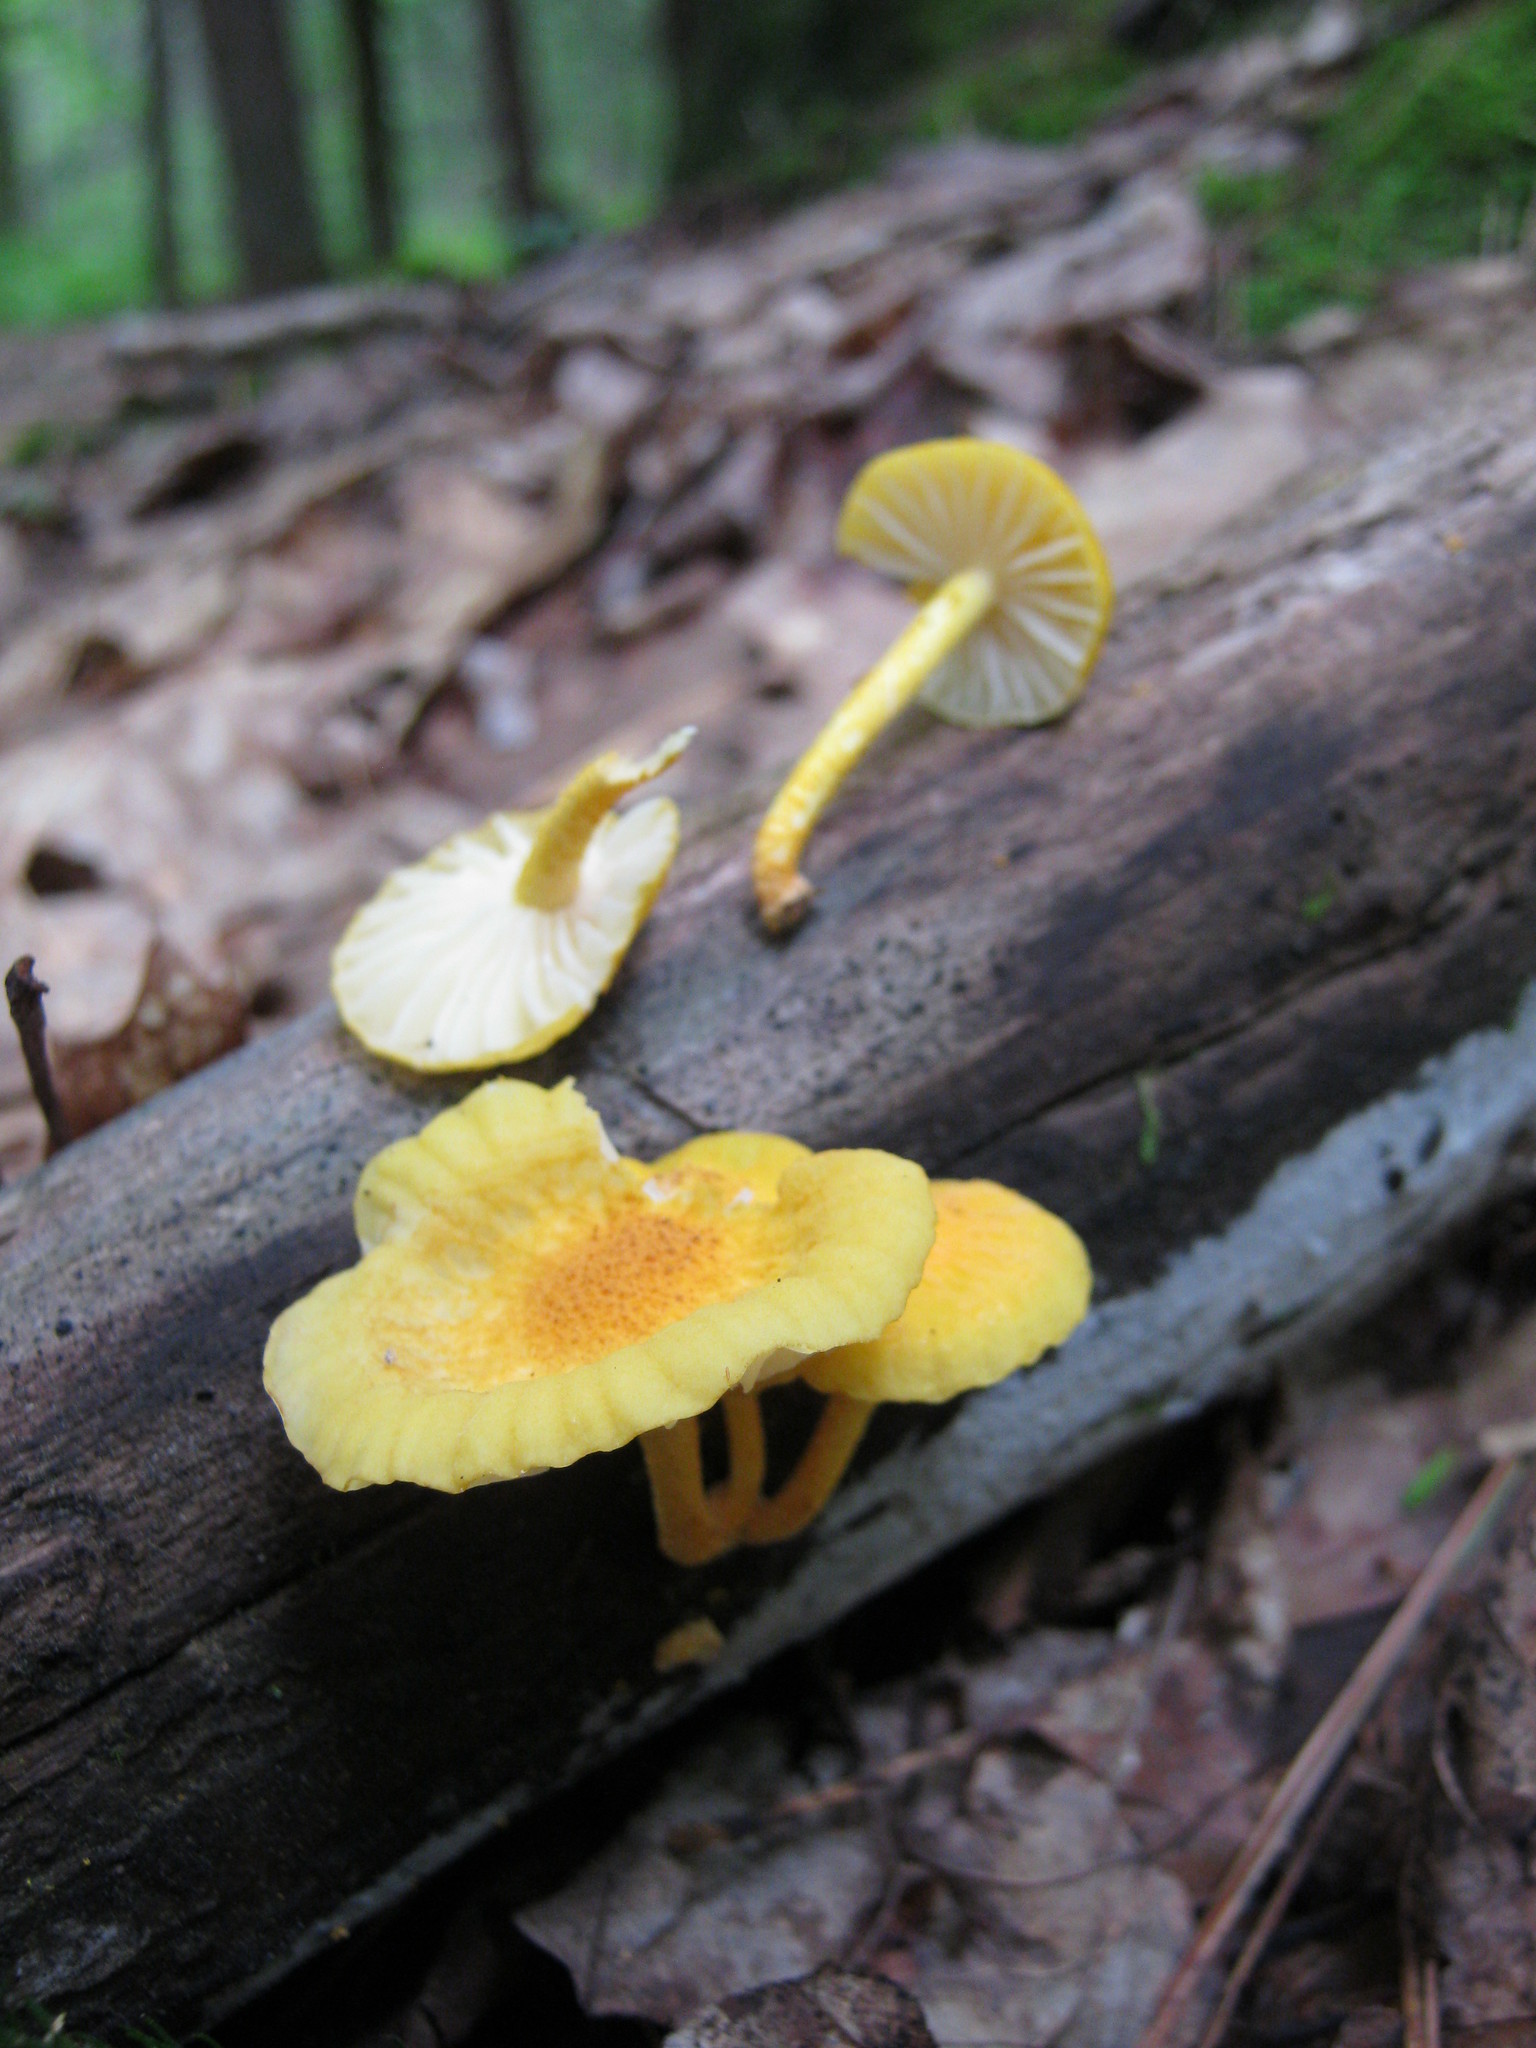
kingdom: Fungi
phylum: Basidiomycota
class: Agaricomycetes
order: Agaricales
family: Physalacriaceae
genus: Cyptotrama
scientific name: Cyptotrama chrysopepla
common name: Golden coincap
